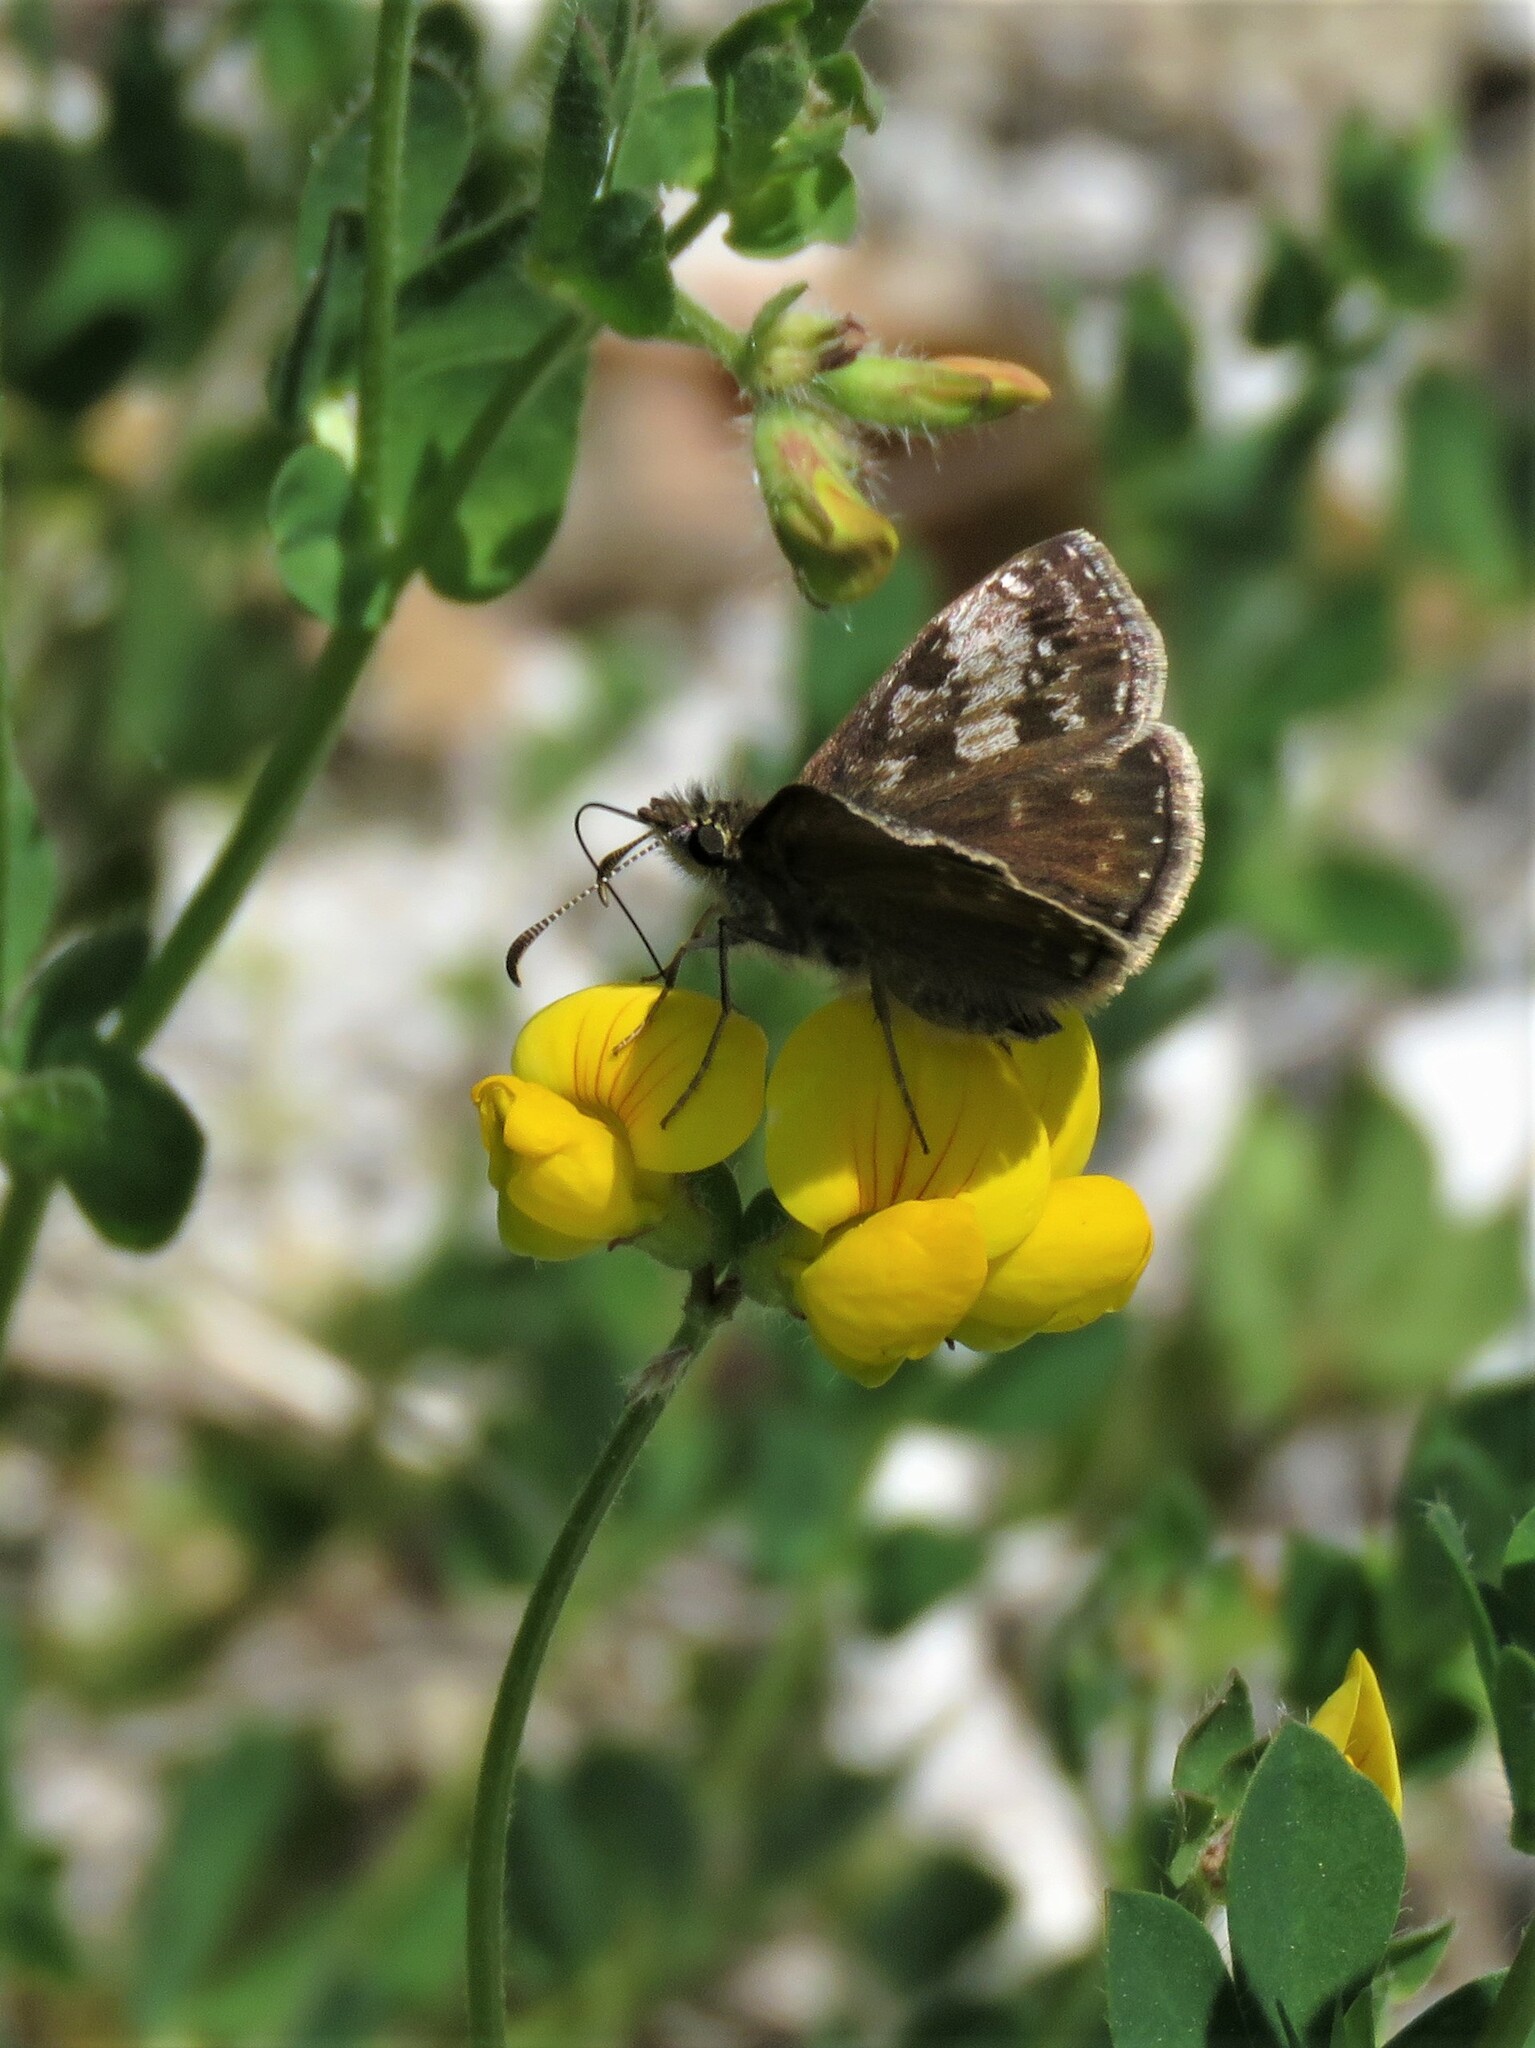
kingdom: Animalia
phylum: Arthropoda
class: Insecta
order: Lepidoptera
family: Hesperiidae
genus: Erynnis
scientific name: Erynnis tages
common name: Dingy skipper
